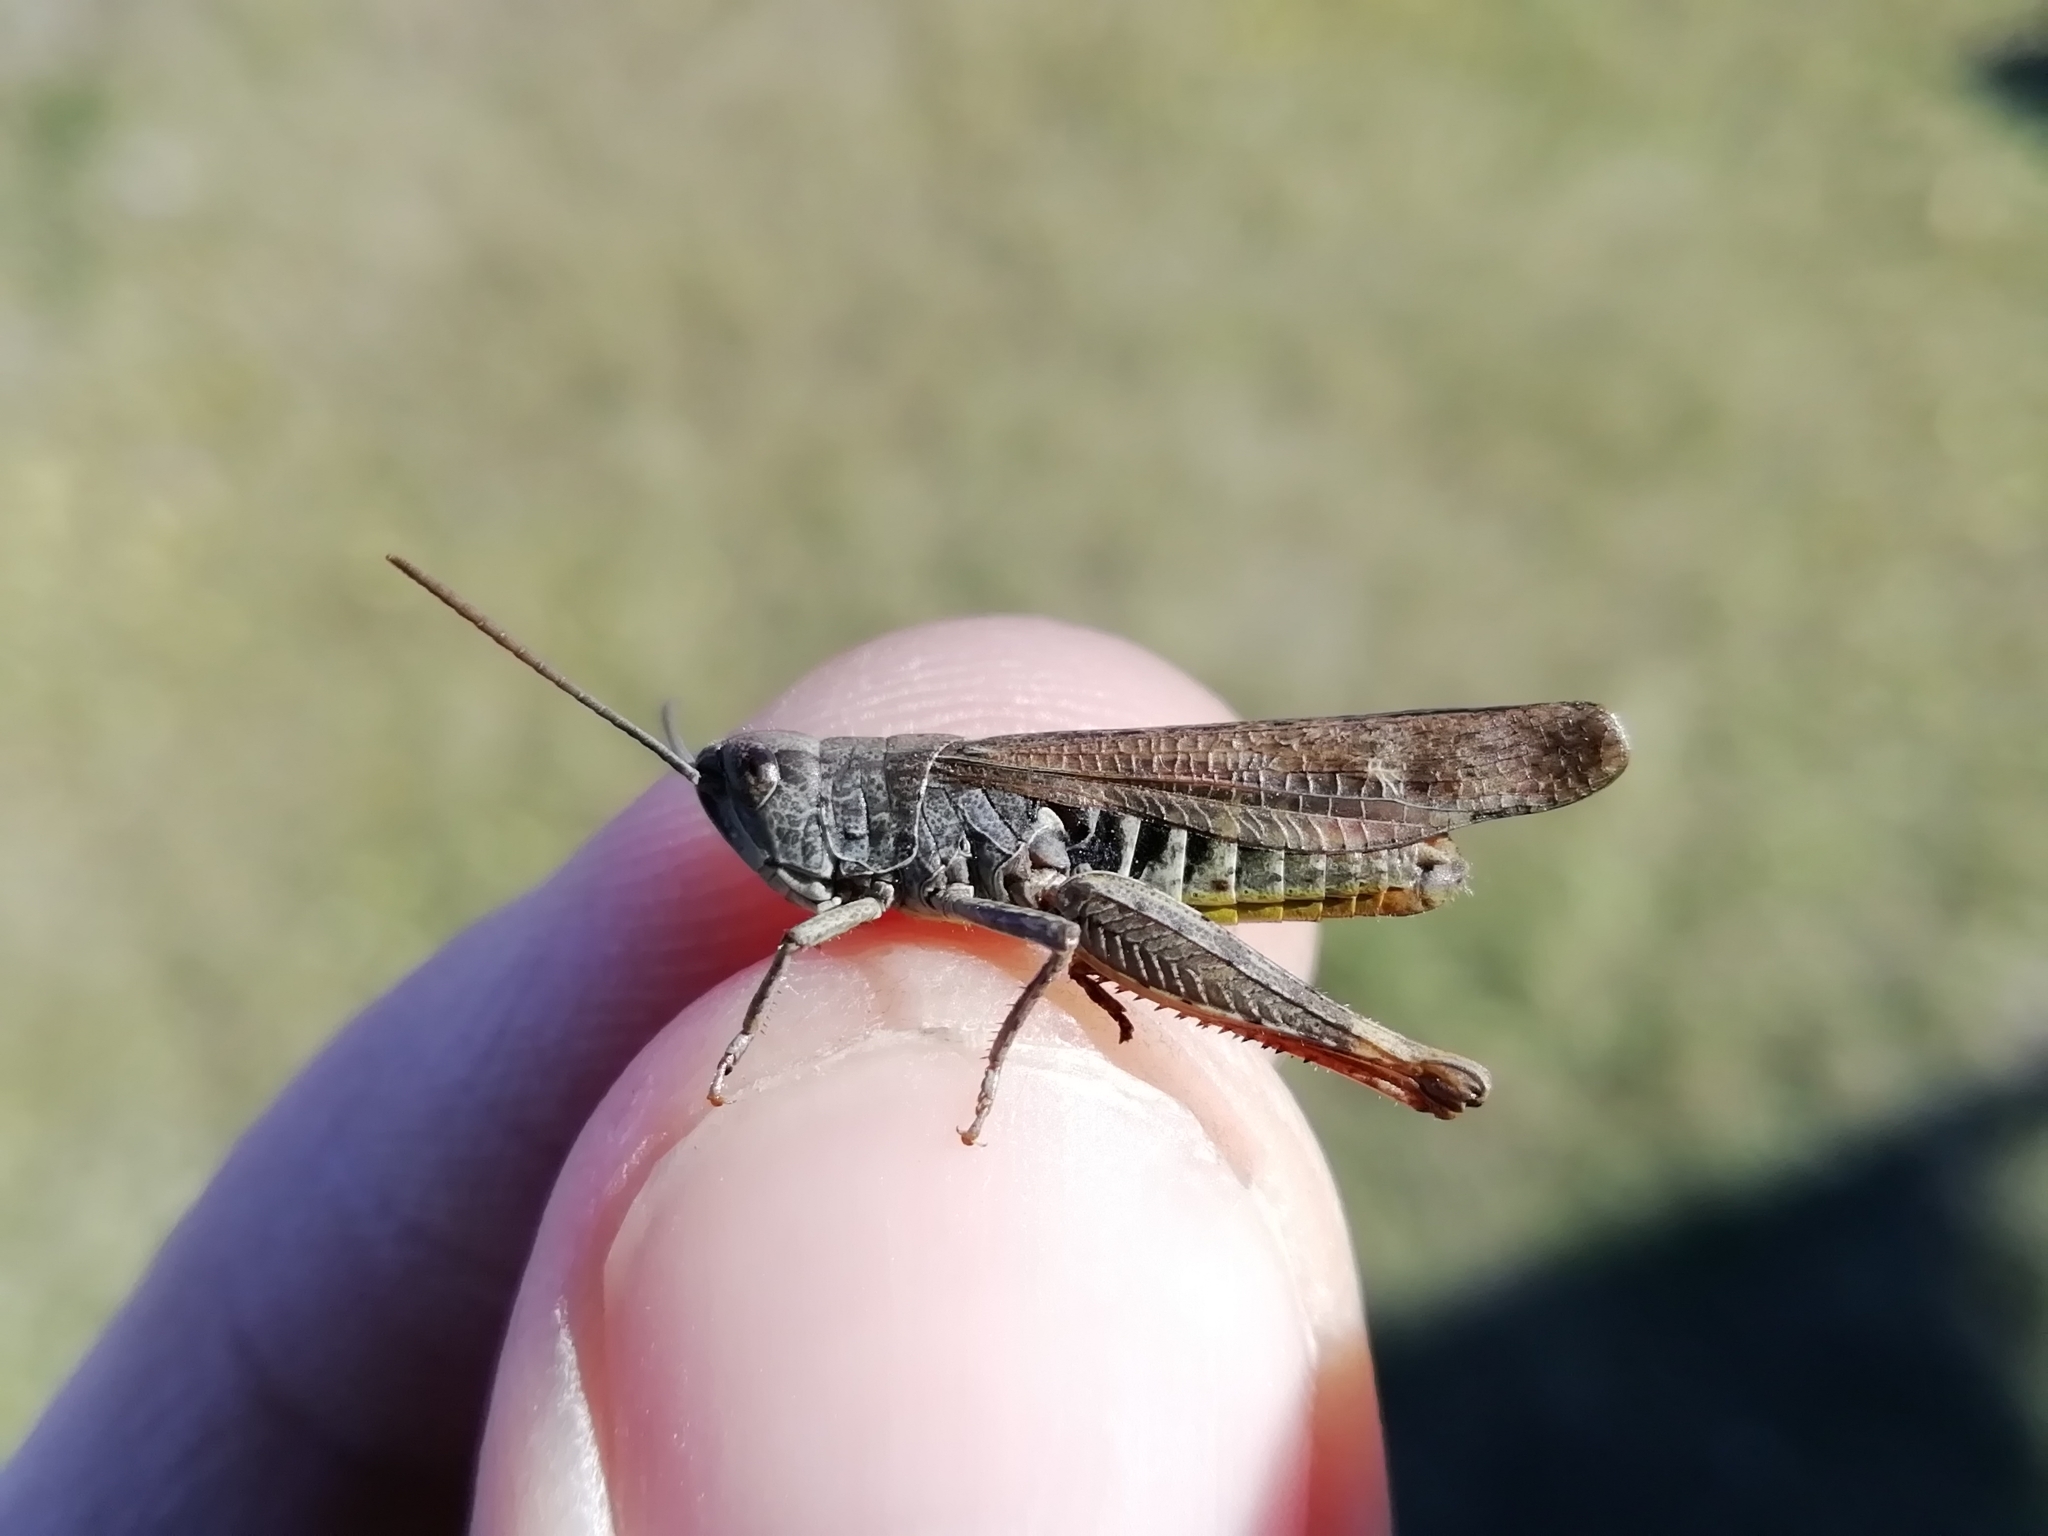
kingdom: Animalia
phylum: Arthropoda
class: Insecta
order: Orthoptera
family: Acrididae
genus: Chorthippus
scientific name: Chorthippus biguttulus
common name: Bow-winged grasshopper
